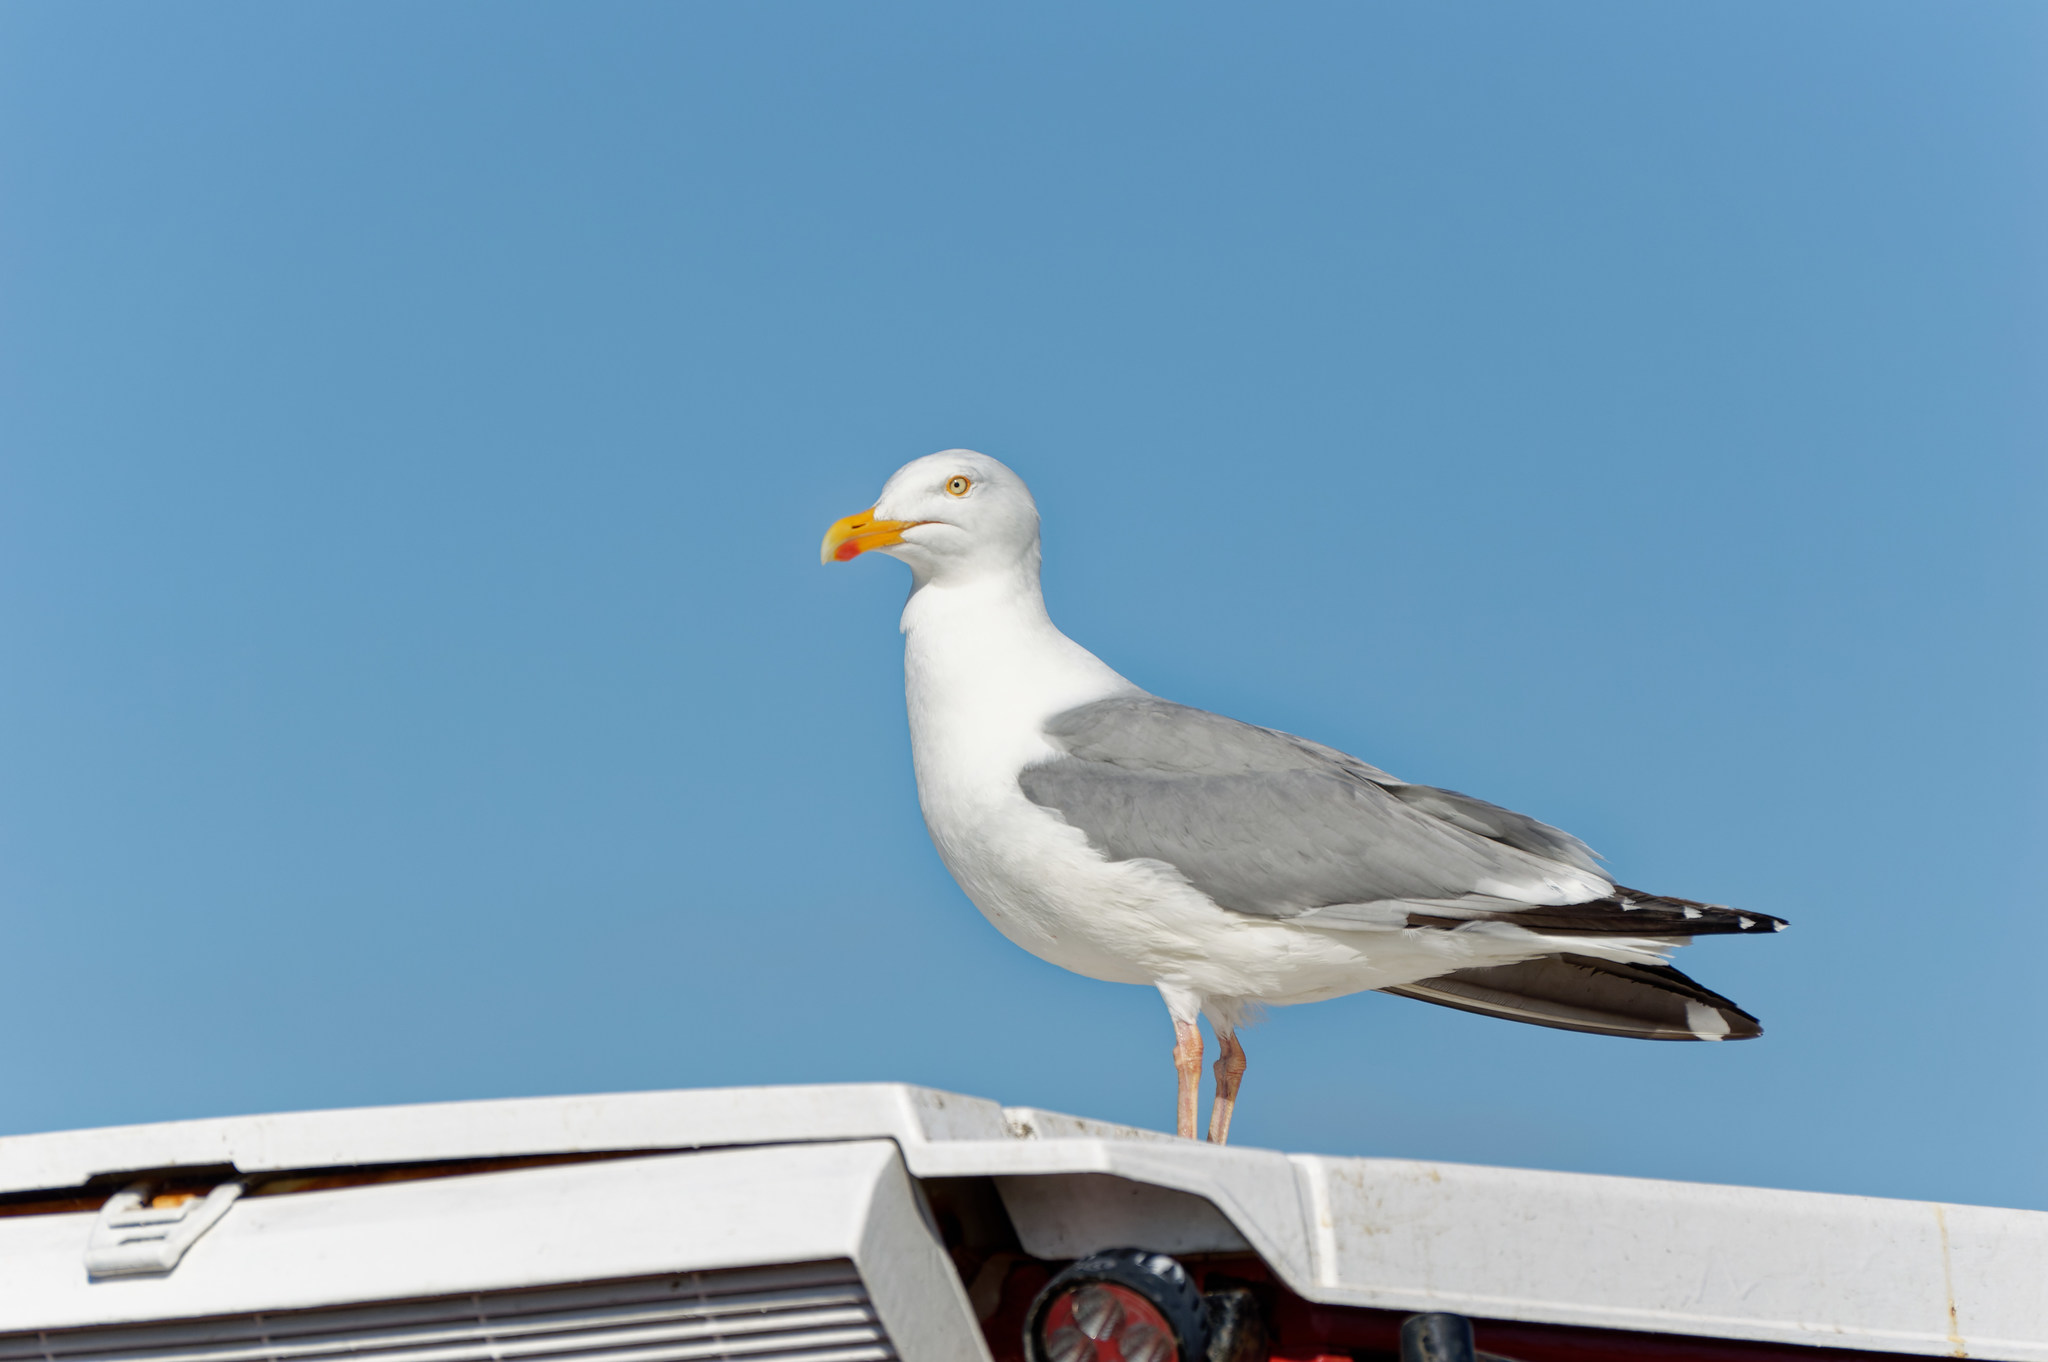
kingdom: Animalia
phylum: Chordata
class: Aves
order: Charadriiformes
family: Laridae
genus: Larus
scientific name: Larus argentatus
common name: Herring gull
